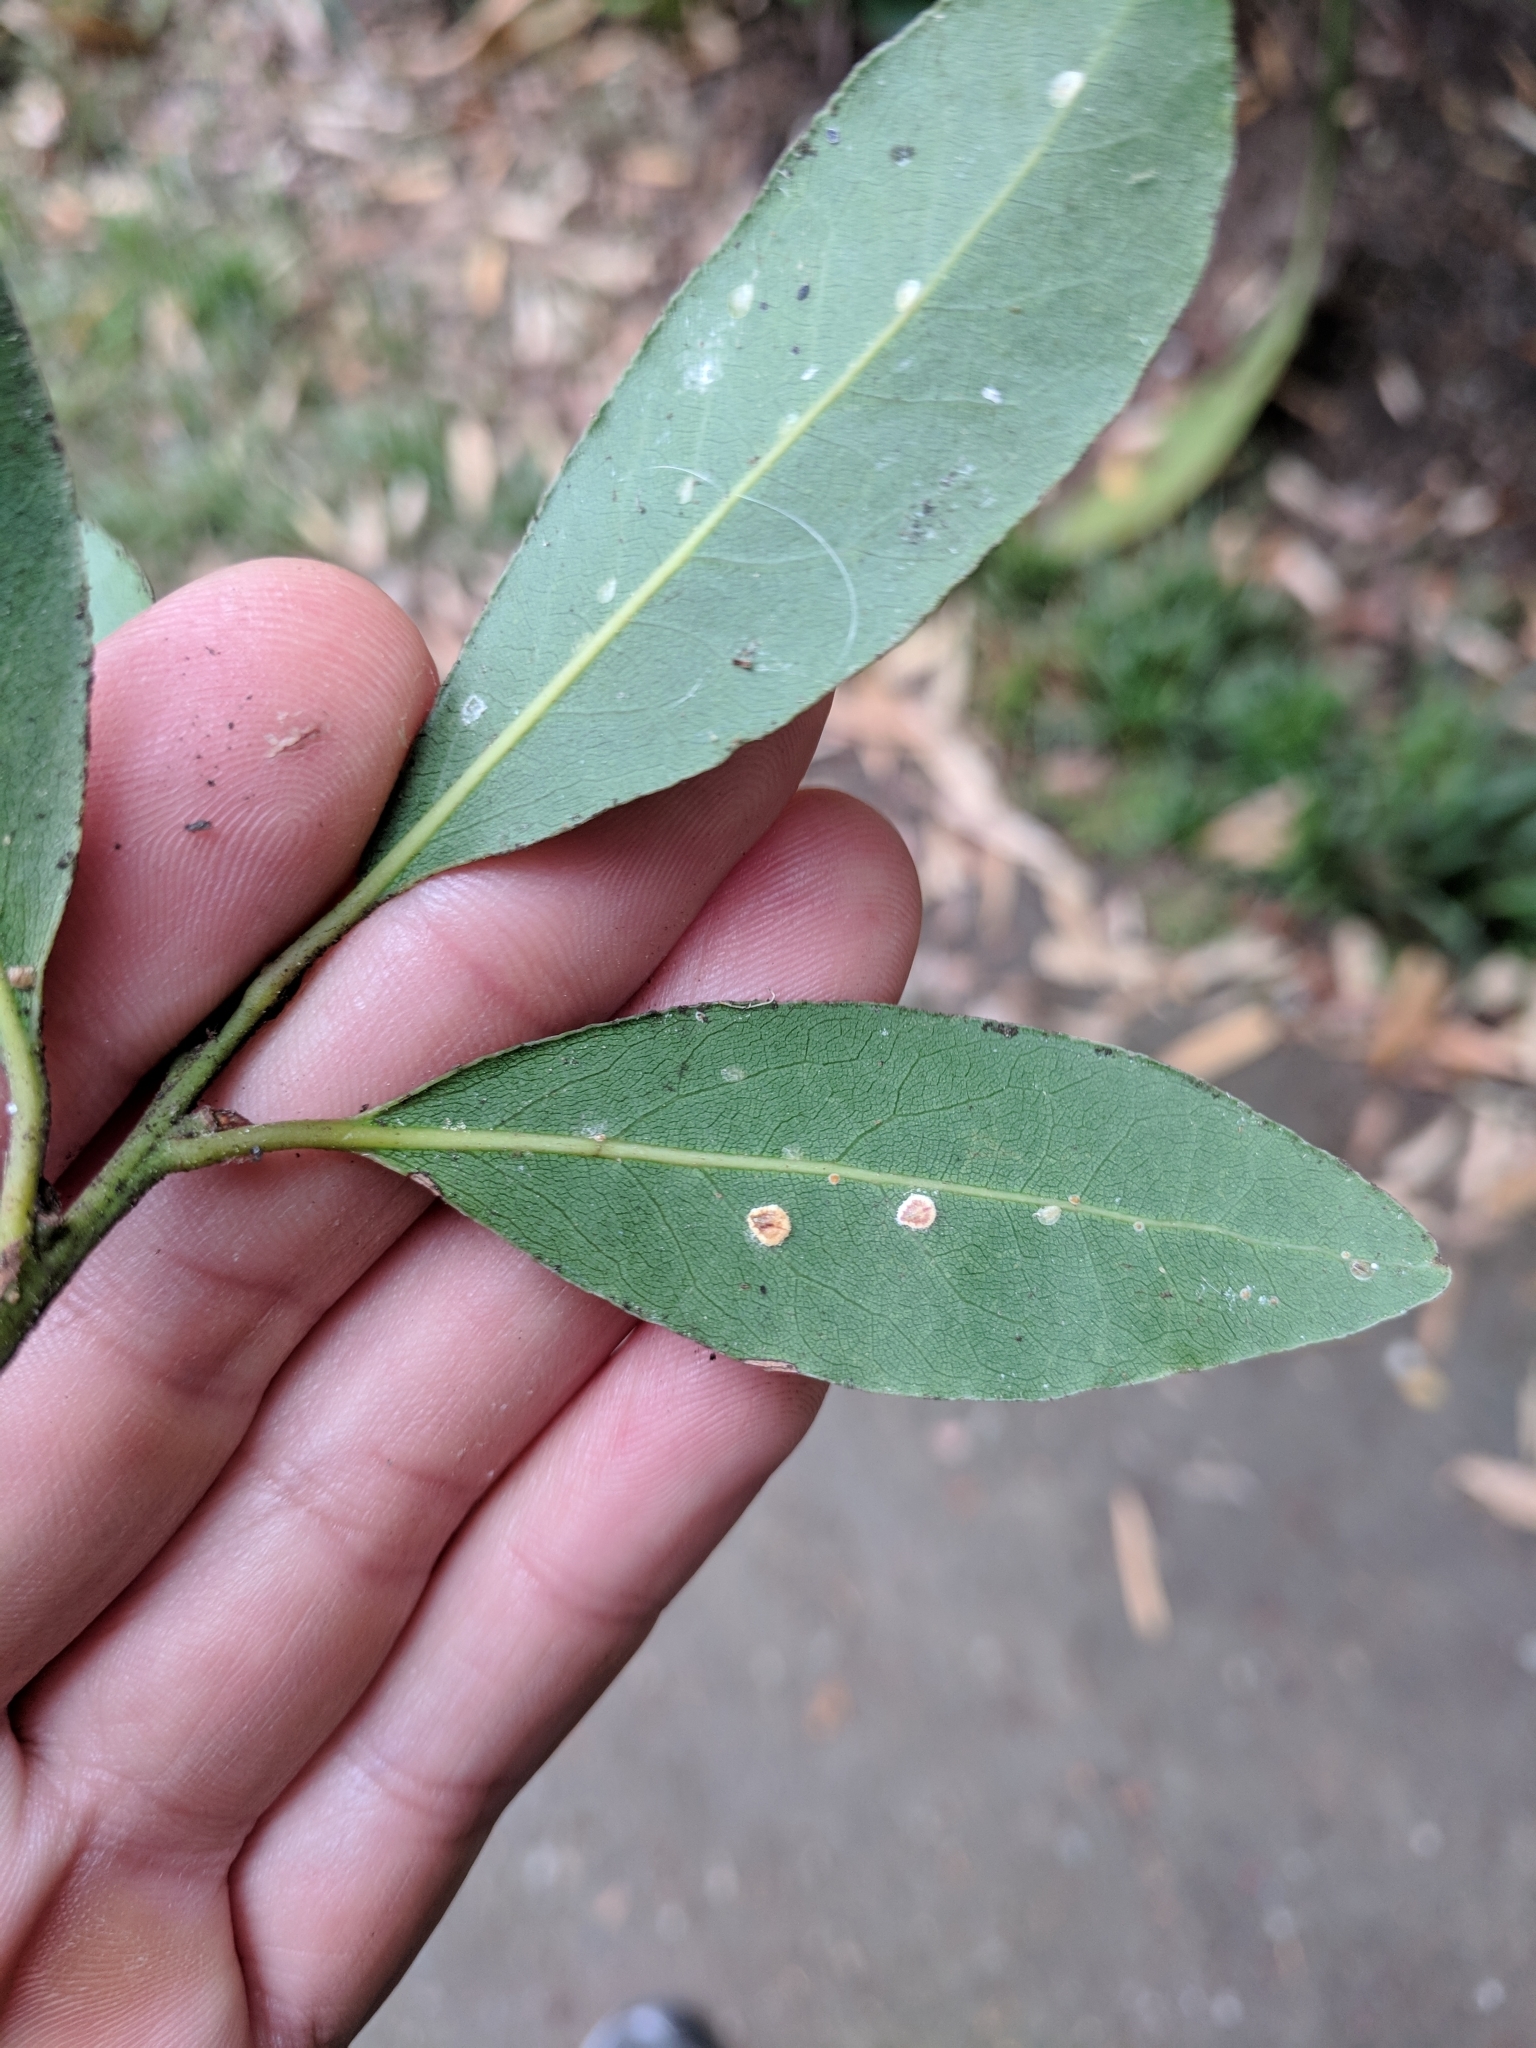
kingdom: Animalia
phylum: Arthropoda
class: Insecta
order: Hemiptera
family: Coccidae
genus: Protopulvinaria
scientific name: Protopulvinaria pyriformis
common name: Pyriform scale
